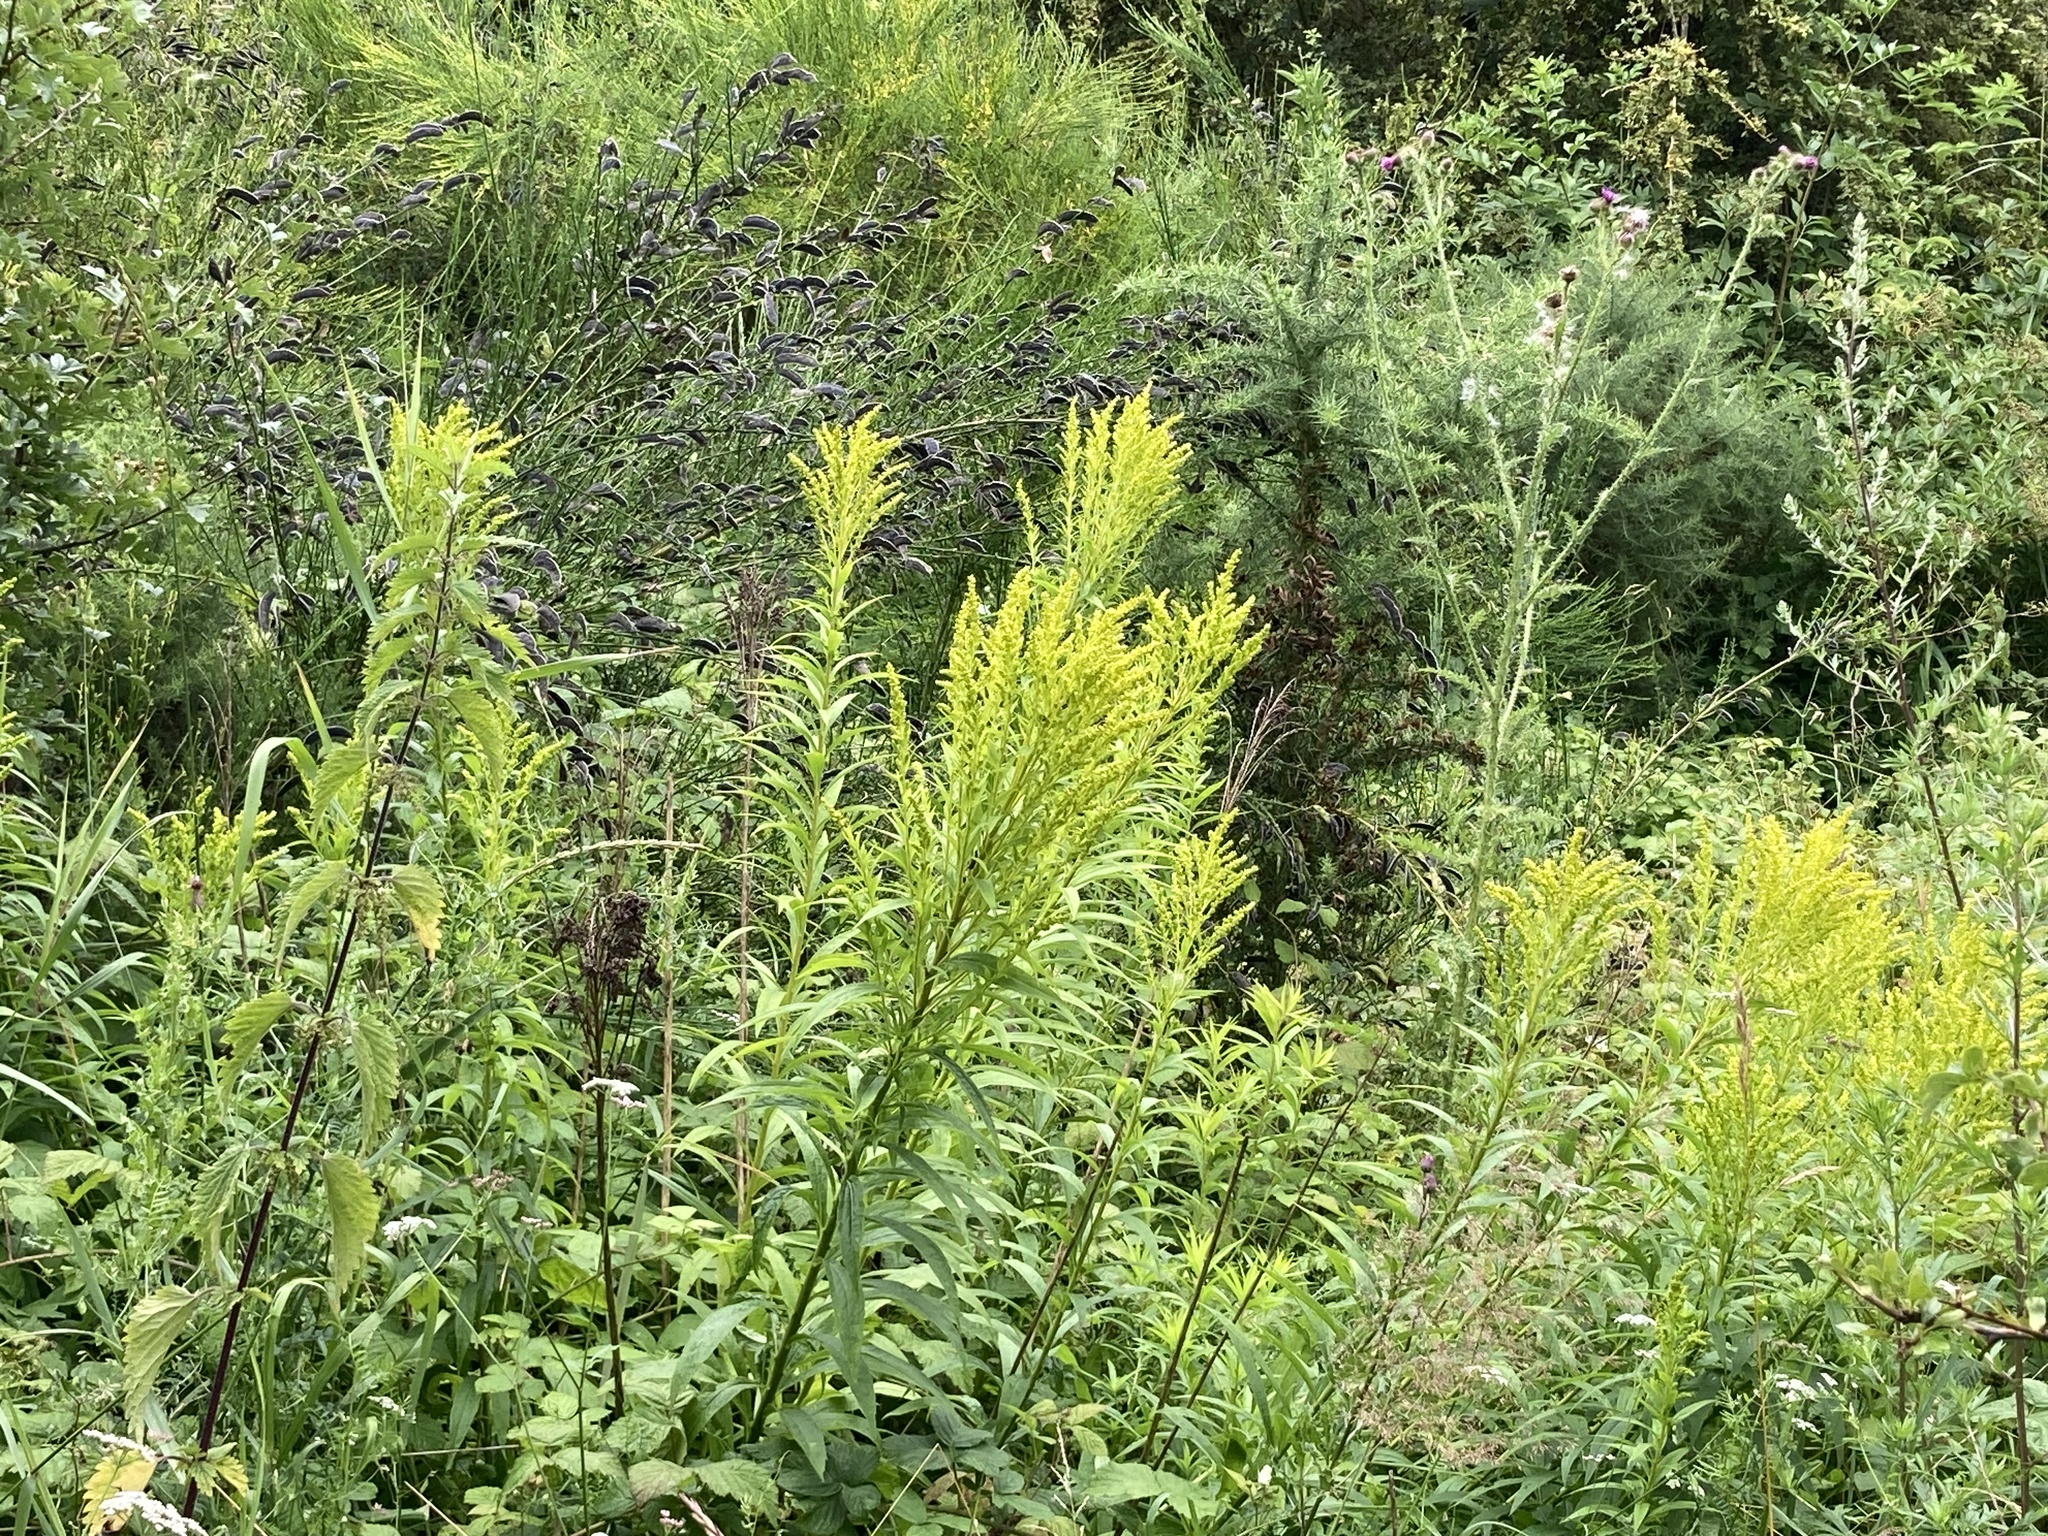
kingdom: Plantae
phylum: Tracheophyta
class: Magnoliopsida
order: Asterales
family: Asteraceae
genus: Solidago
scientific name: Solidago virgaurea
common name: Goldenrod
